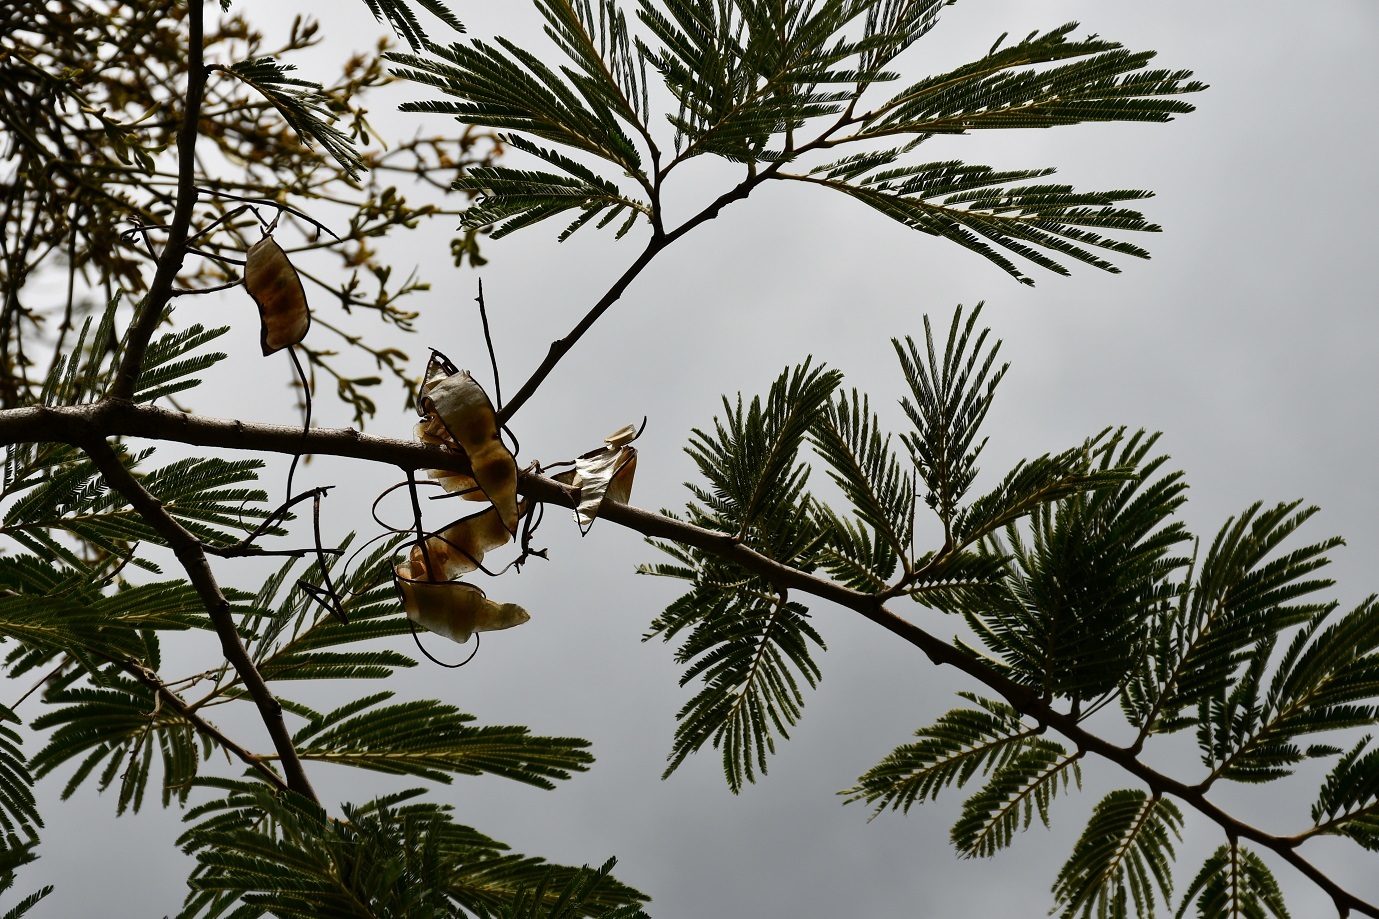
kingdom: Plantae
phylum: Tracheophyta
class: Magnoliopsida
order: Fabales
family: Fabaceae
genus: Lysiloma
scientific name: Lysiloma divaricatum
